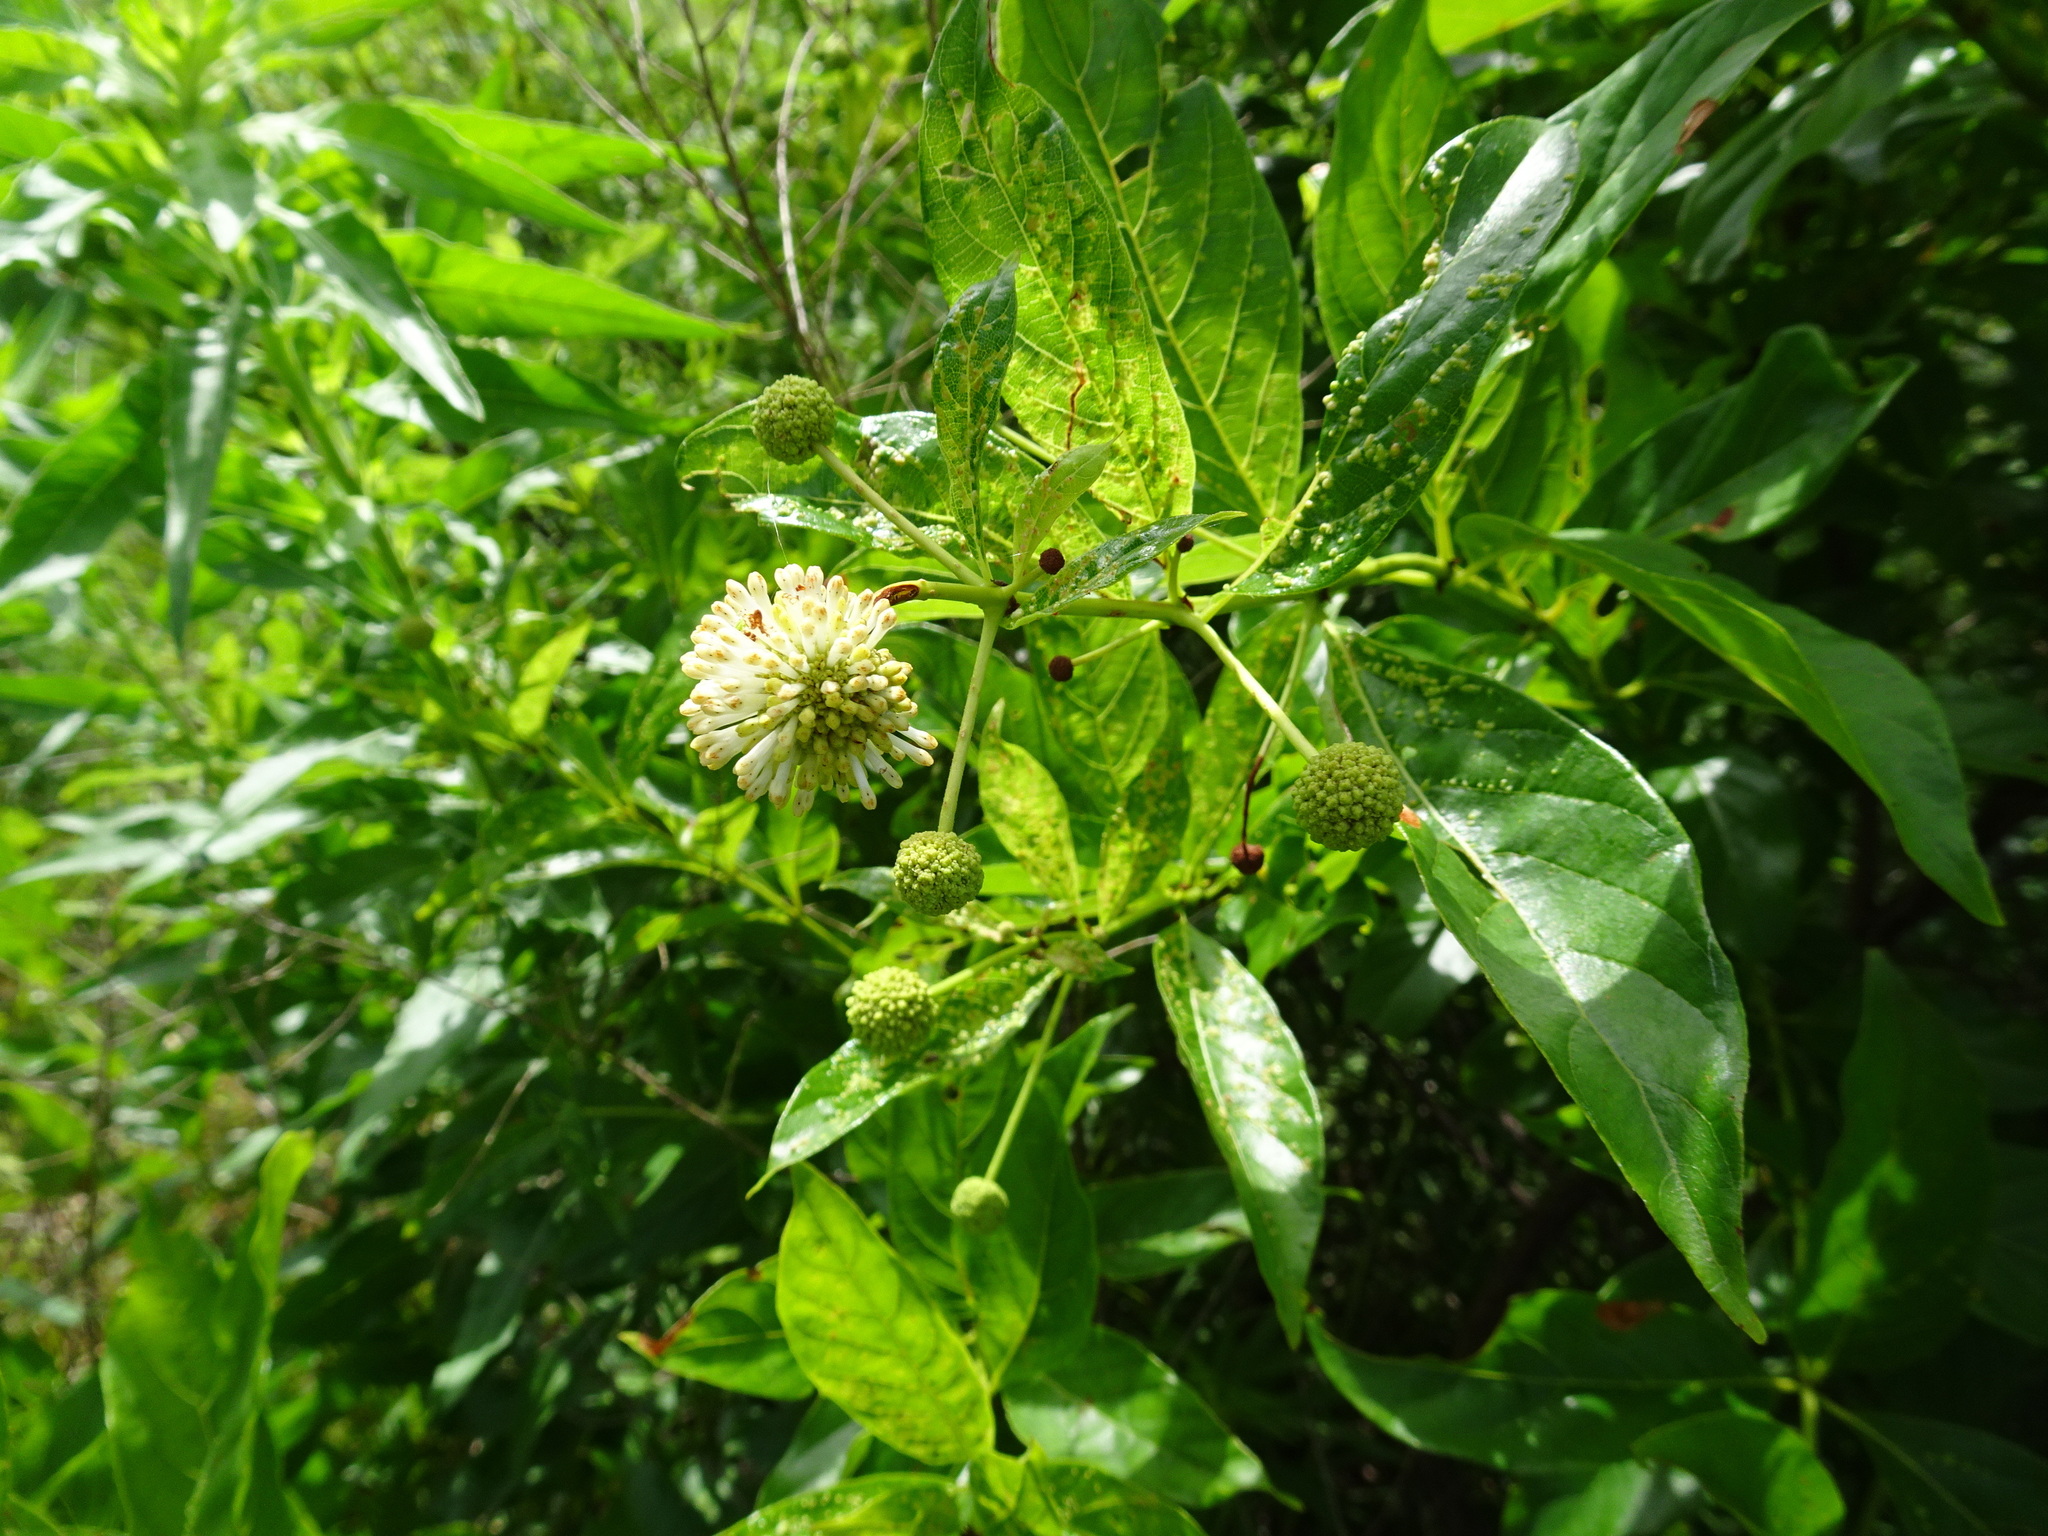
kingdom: Plantae
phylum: Tracheophyta
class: Magnoliopsida
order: Gentianales
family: Rubiaceae
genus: Cephalanthus
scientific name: Cephalanthus occidentalis
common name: Button-willow
